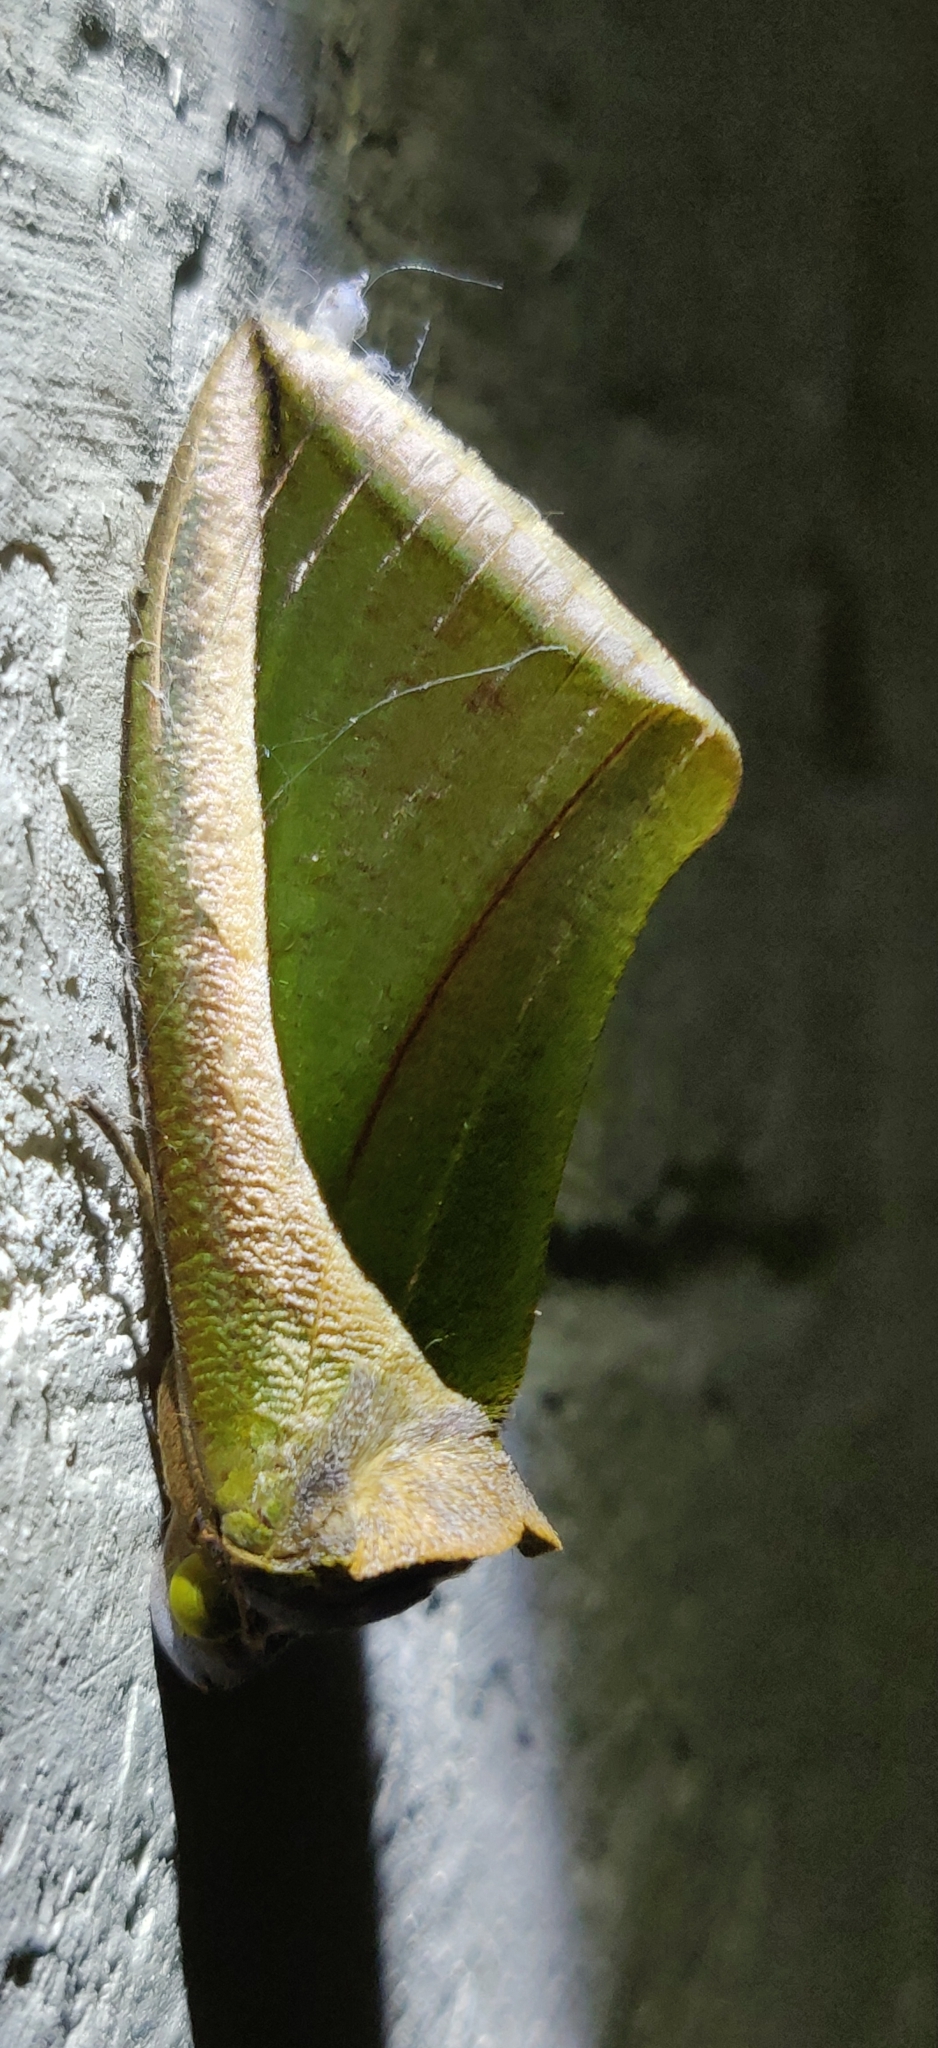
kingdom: Animalia
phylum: Arthropoda
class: Insecta
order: Lepidoptera
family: Erebidae
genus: Eudocima
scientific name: Eudocima salaminia
